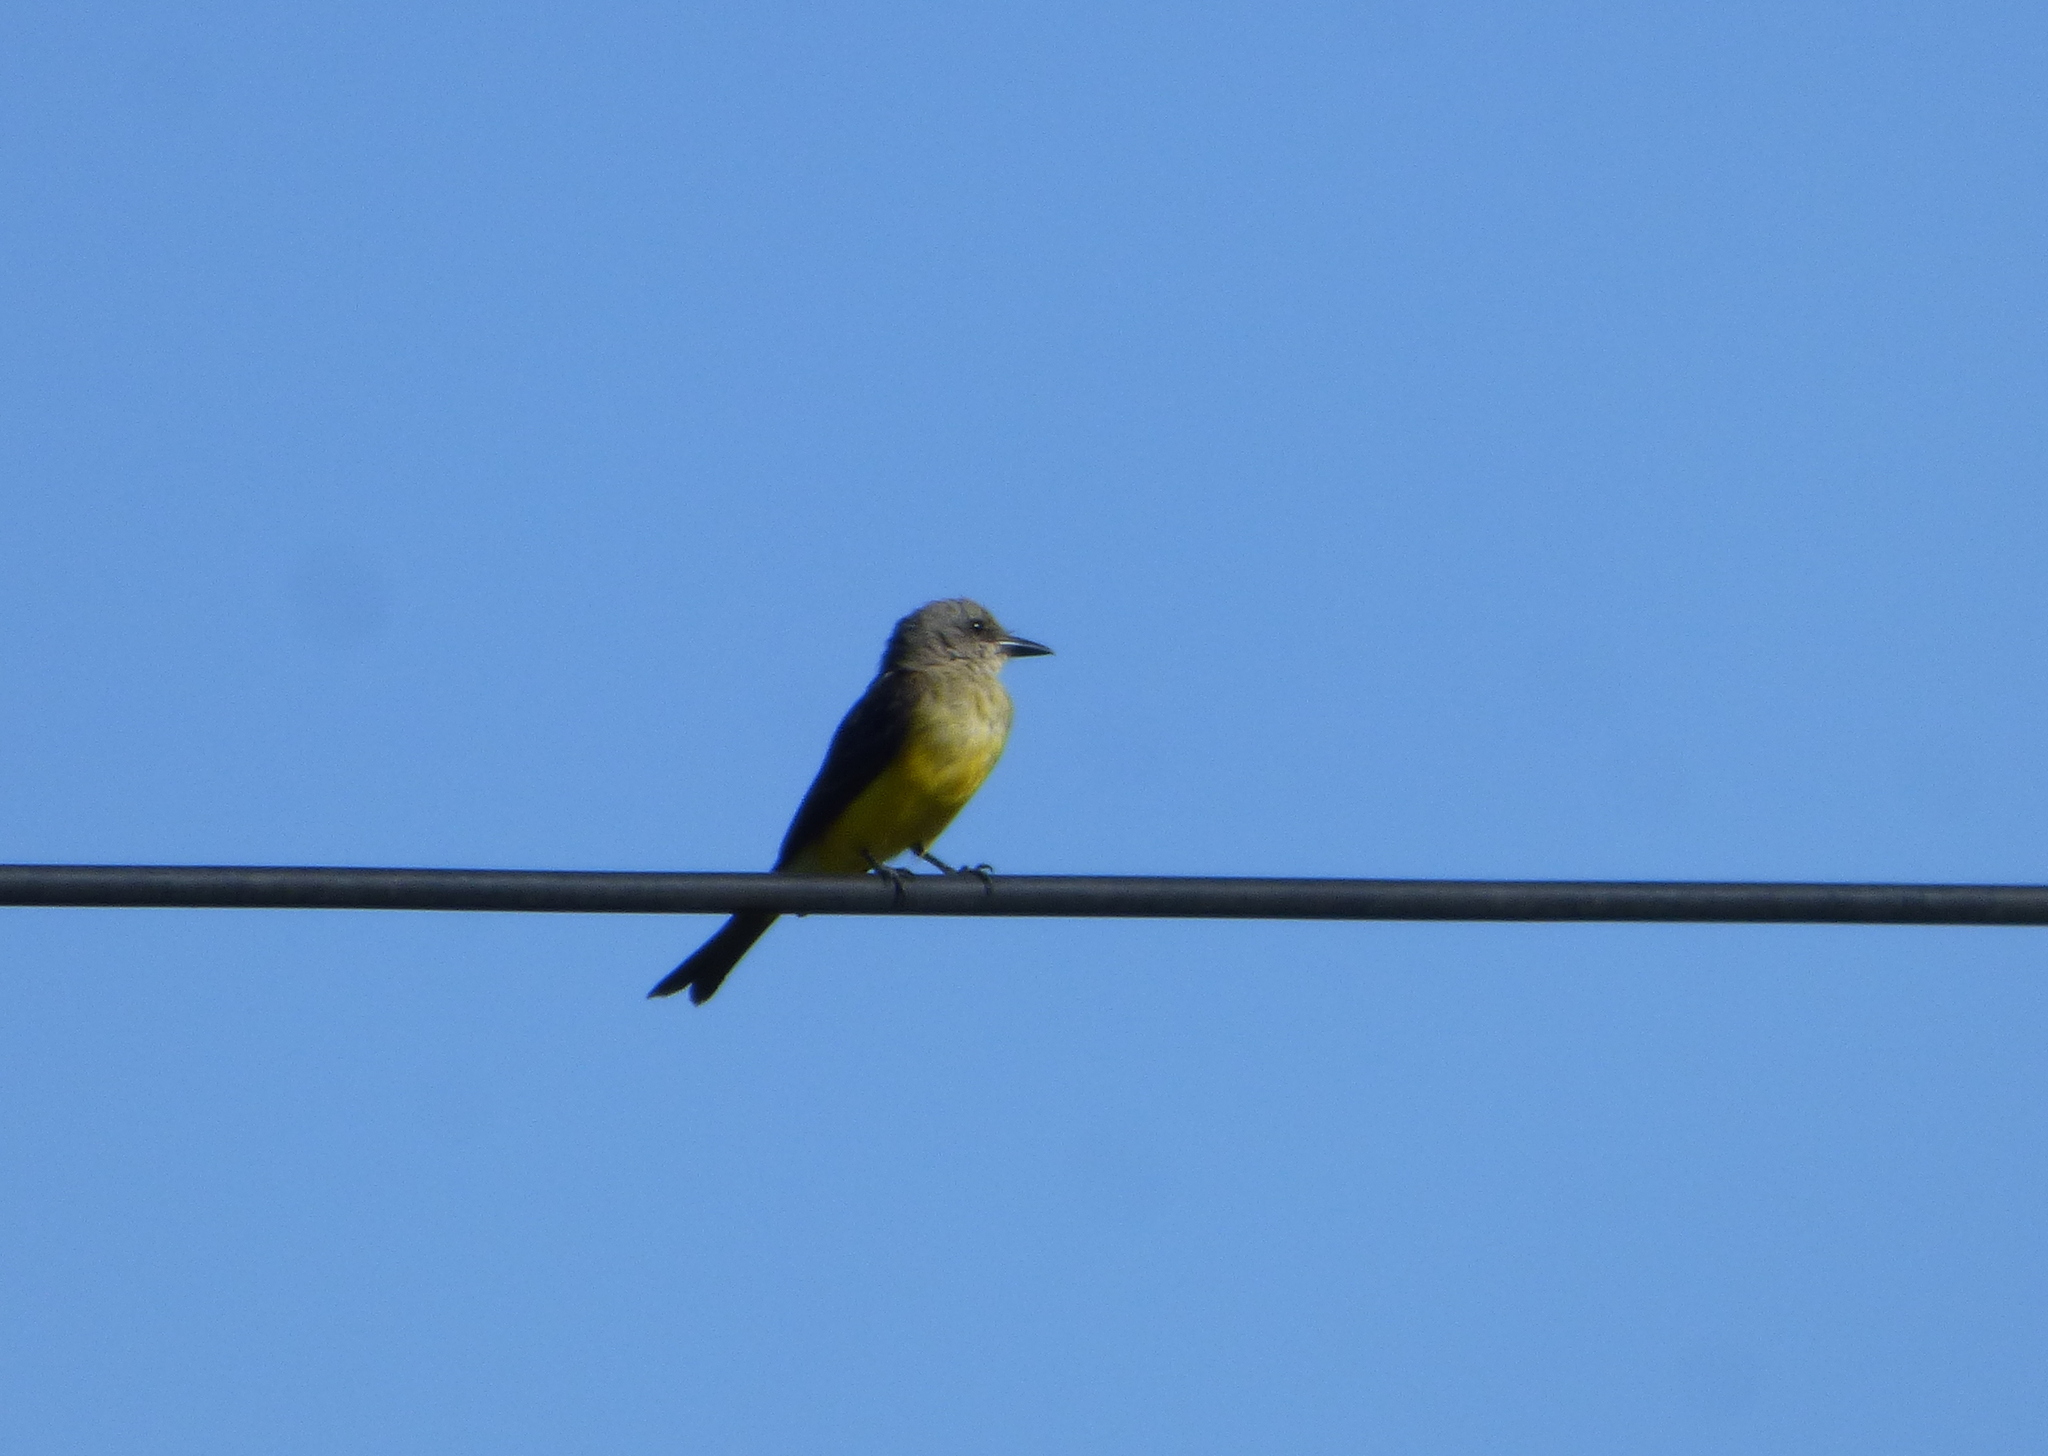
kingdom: Animalia
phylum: Chordata
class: Aves
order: Passeriformes
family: Tyrannidae
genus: Tyrannus
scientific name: Tyrannus melancholicus
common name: Tropical kingbird
